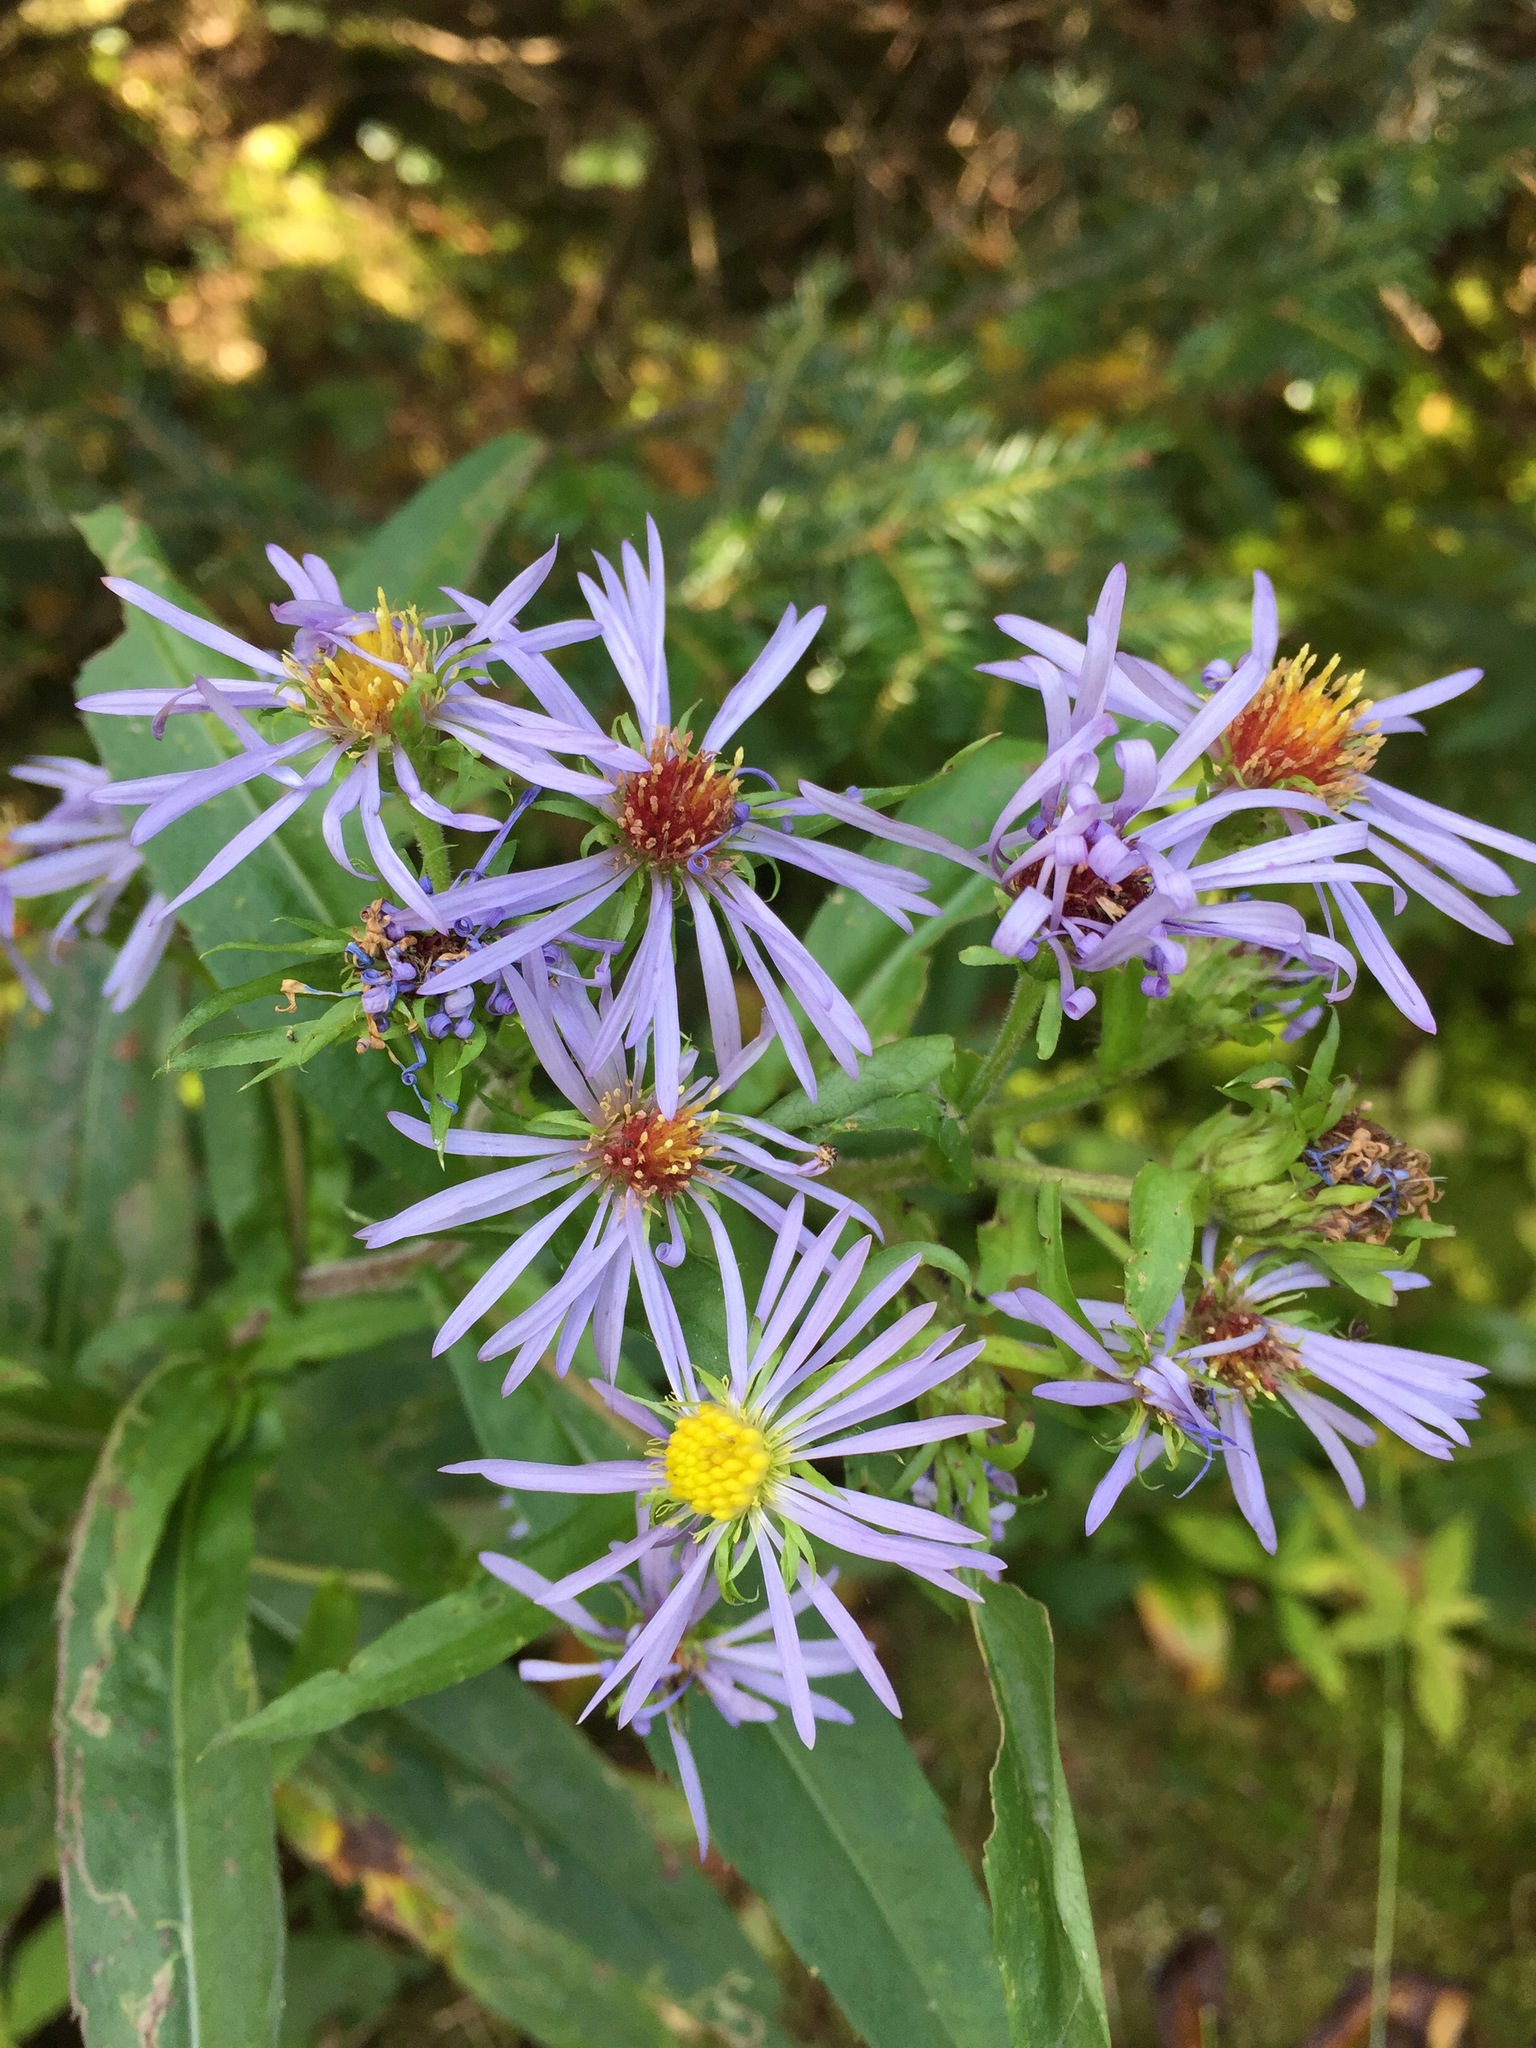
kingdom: Plantae
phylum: Tracheophyta
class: Magnoliopsida
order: Asterales
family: Asteraceae
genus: Symphyotrichum
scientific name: Symphyotrichum puniceum
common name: Bog aster
